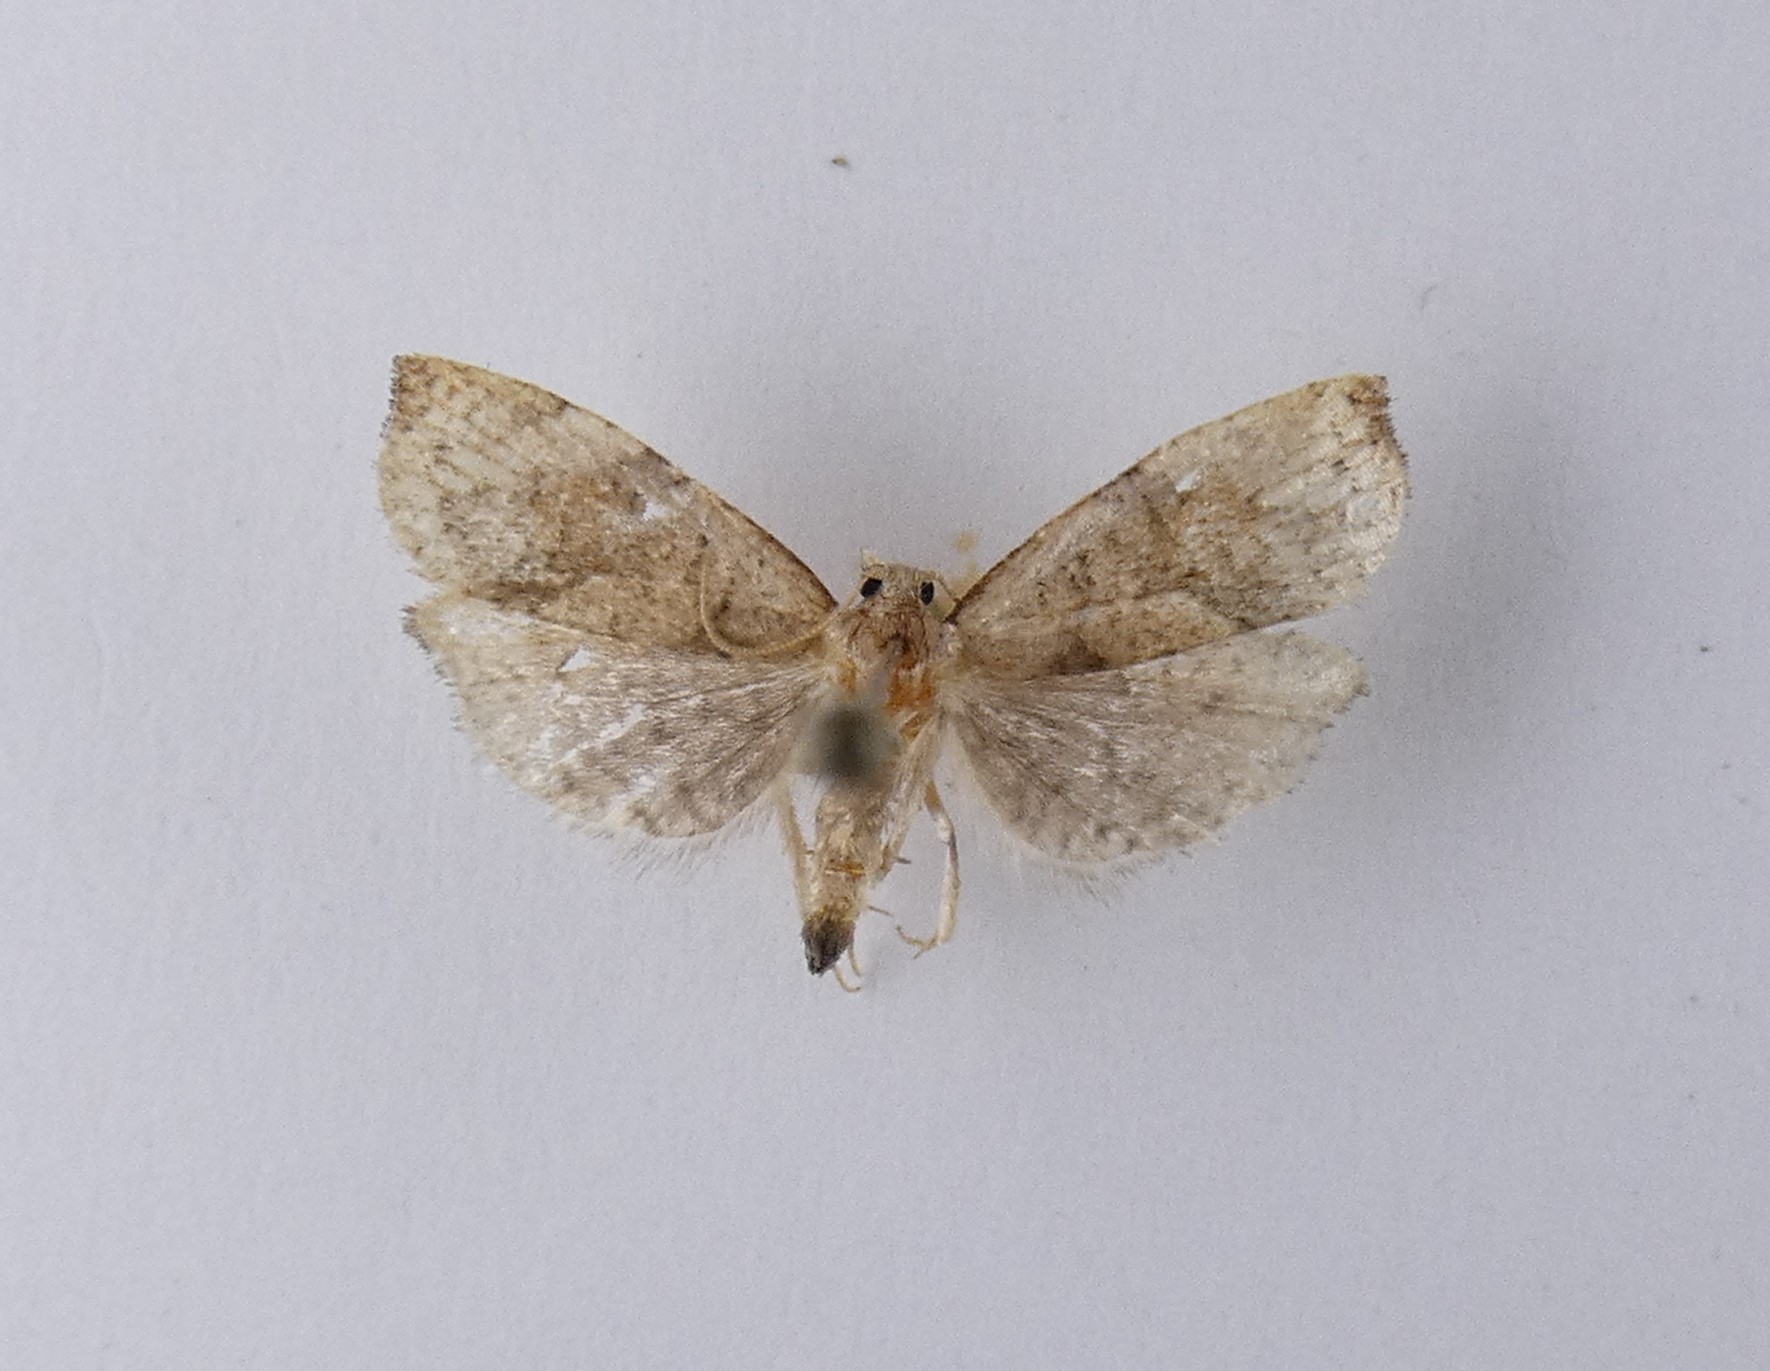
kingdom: Animalia
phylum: Arthropoda
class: Insecta
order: Lepidoptera
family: Tortricidae
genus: Apoctena
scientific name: Apoctena flavescens
